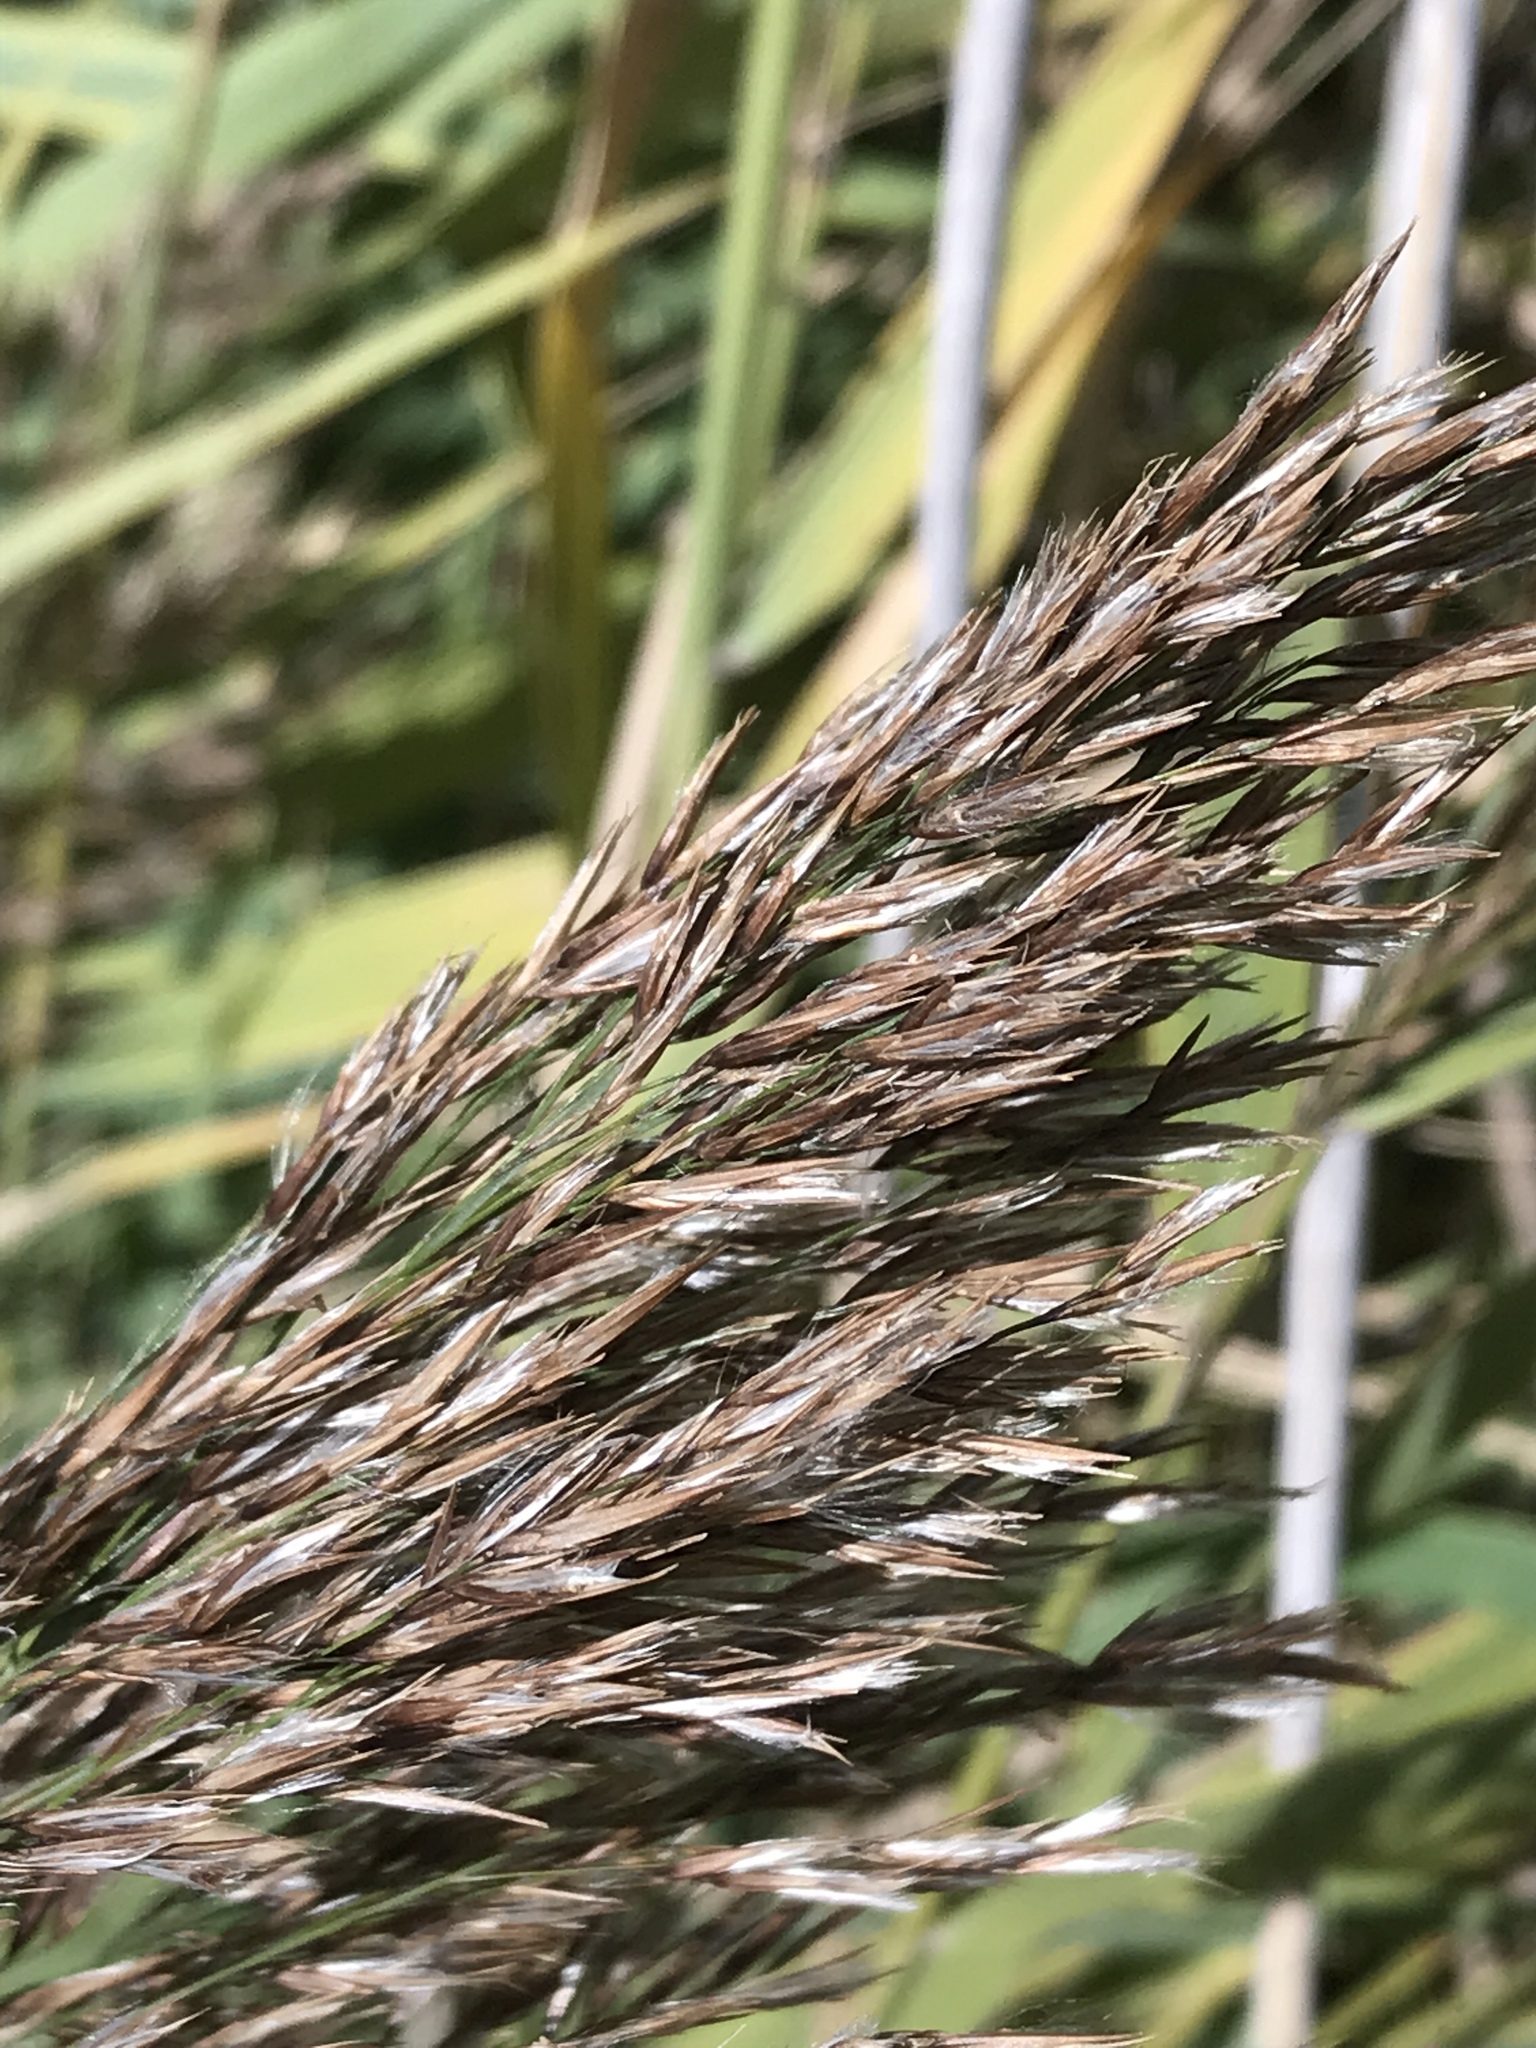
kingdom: Plantae
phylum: Tracheophyta
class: Liliopsida
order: Poales
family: Poaceae
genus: Phragmites
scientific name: Phragmites australis
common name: Common reed
